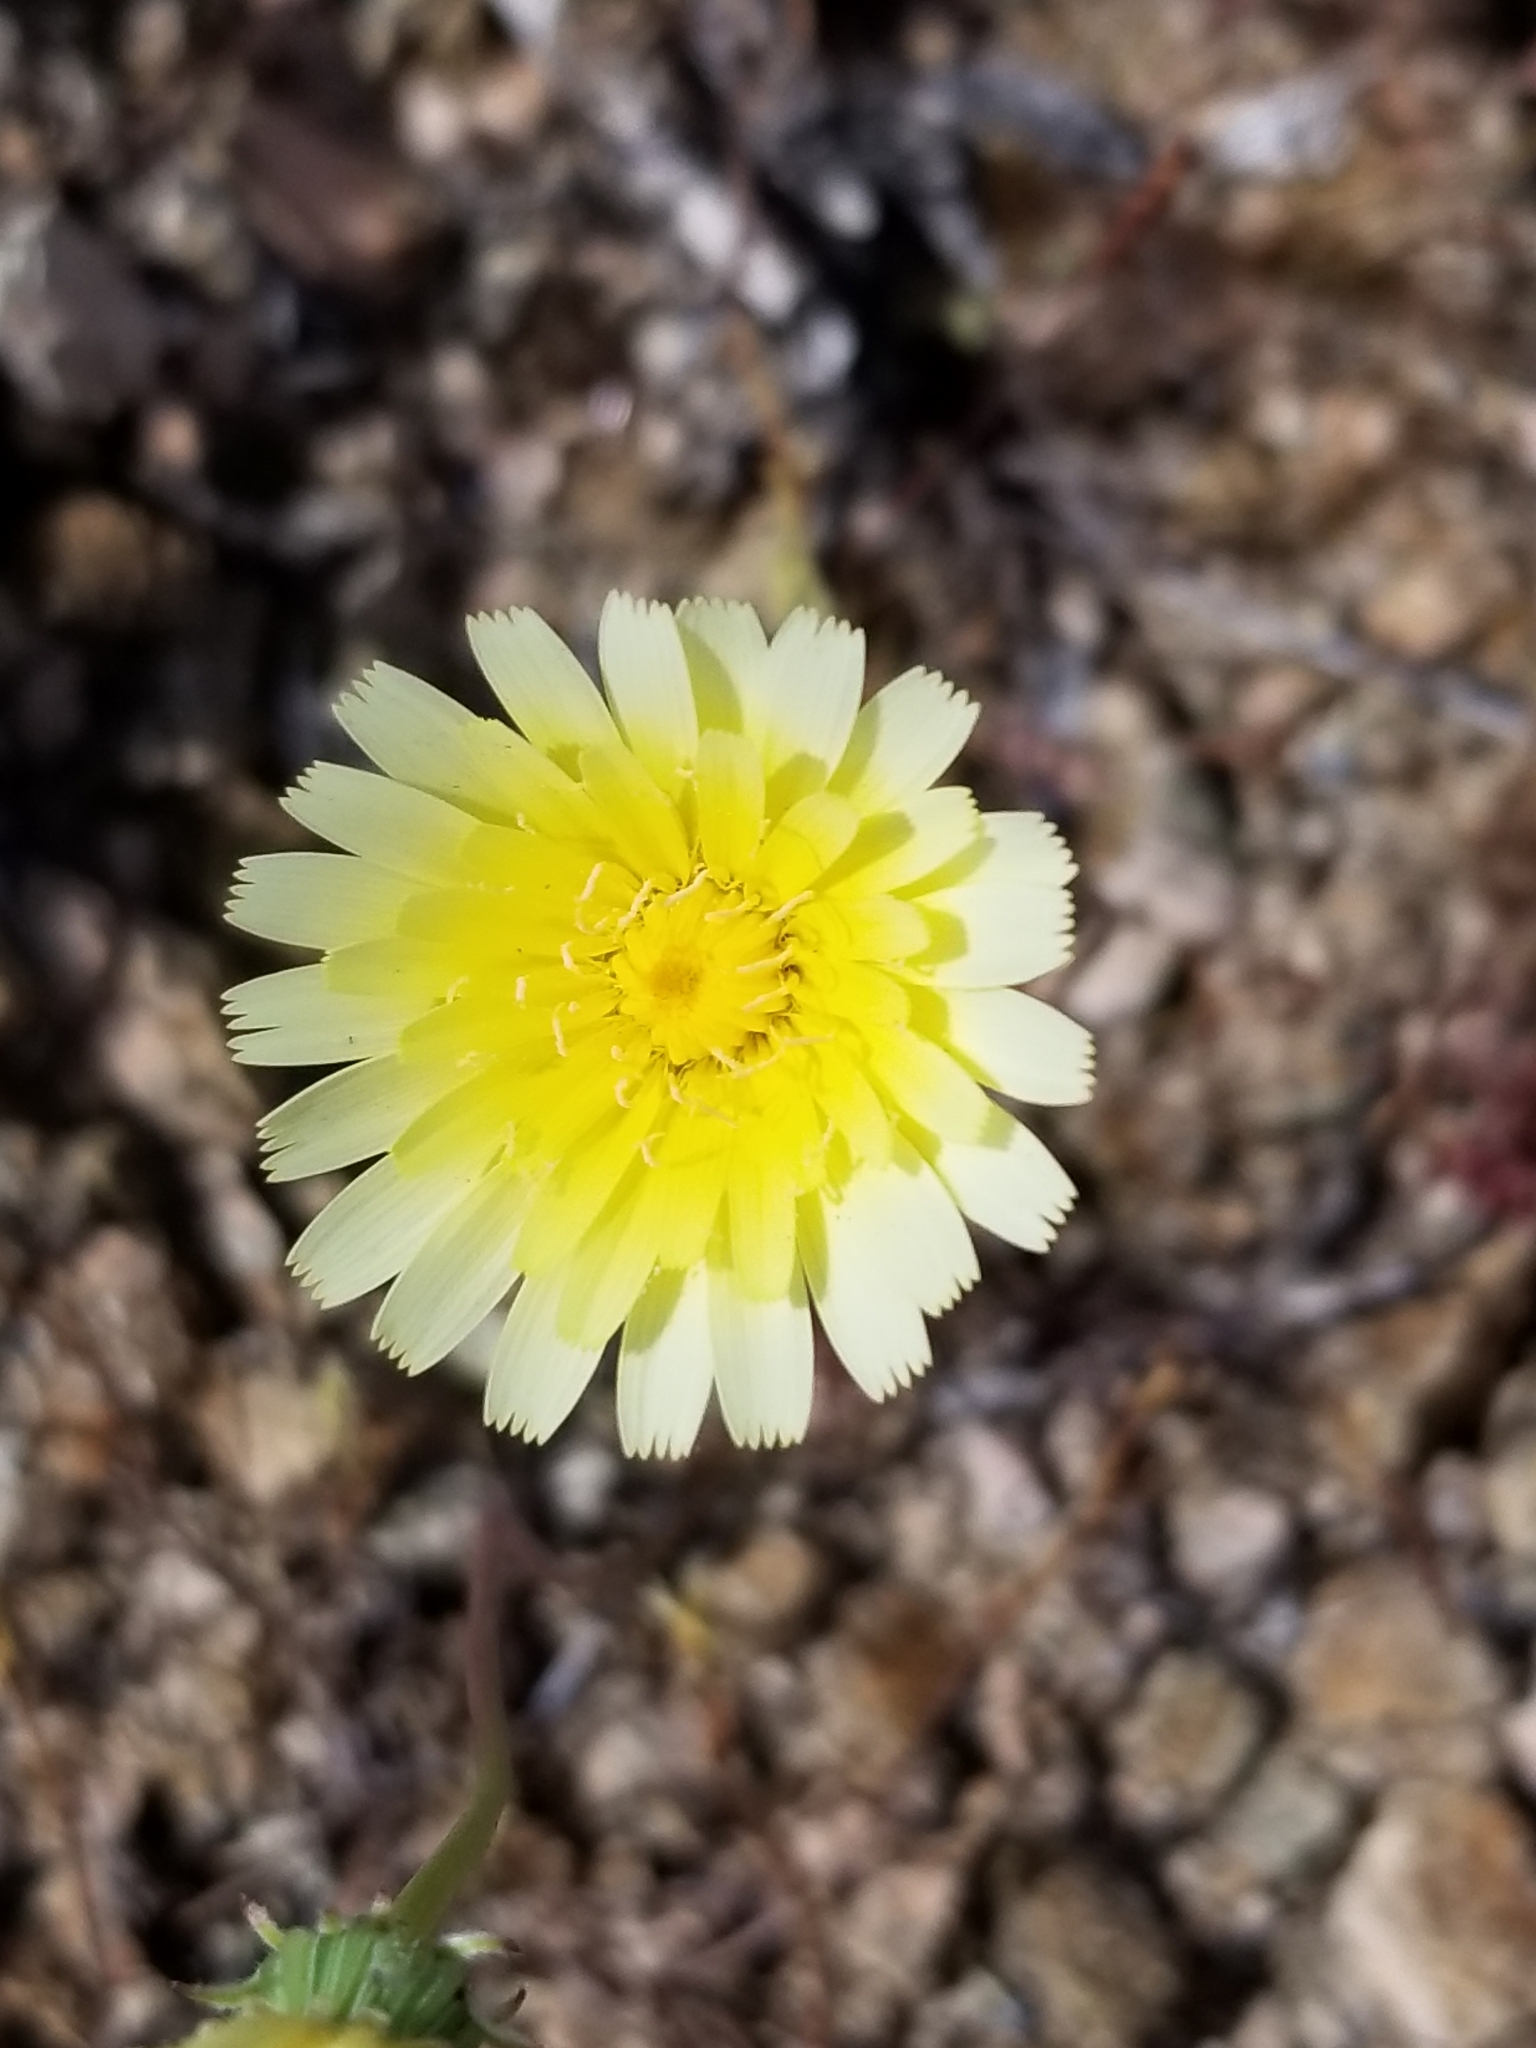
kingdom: Plantae
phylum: Tracheophyta
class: Magnoliopsida
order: Asterales
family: Asteraceae
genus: Malacothrix
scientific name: Malacothrix glabrata
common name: Smooth desert-dandelion
